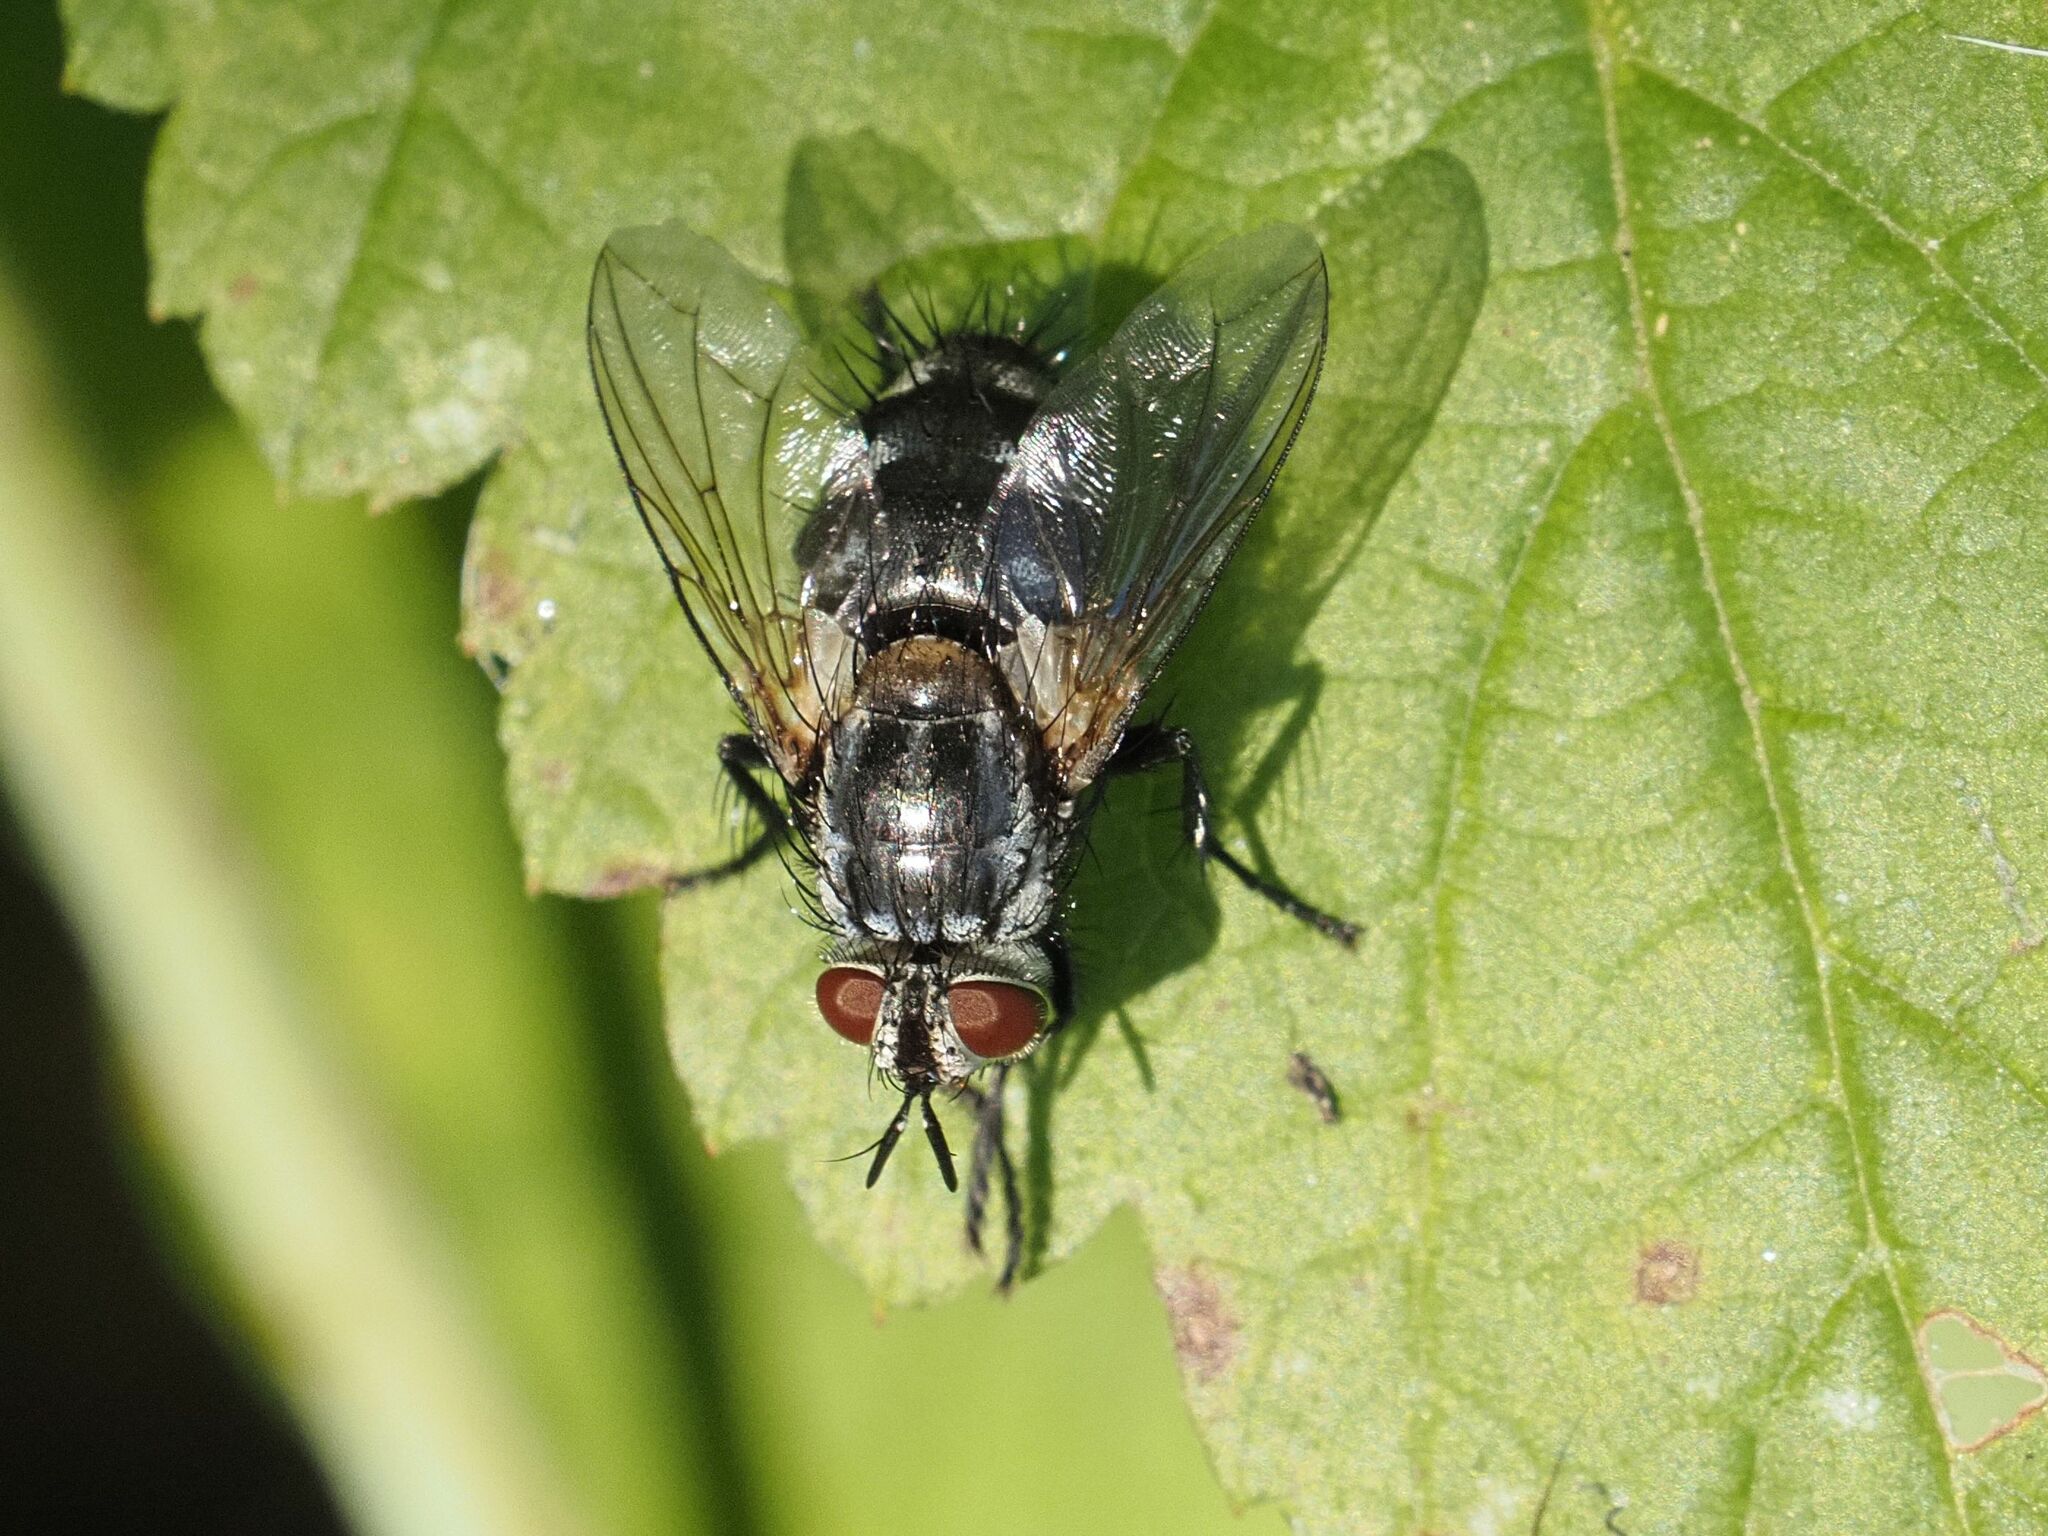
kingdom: Animalia
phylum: Arthropoda
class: Insecta
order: Diptera
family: Tachinidae
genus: Sturmia
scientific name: Sturmia bella
